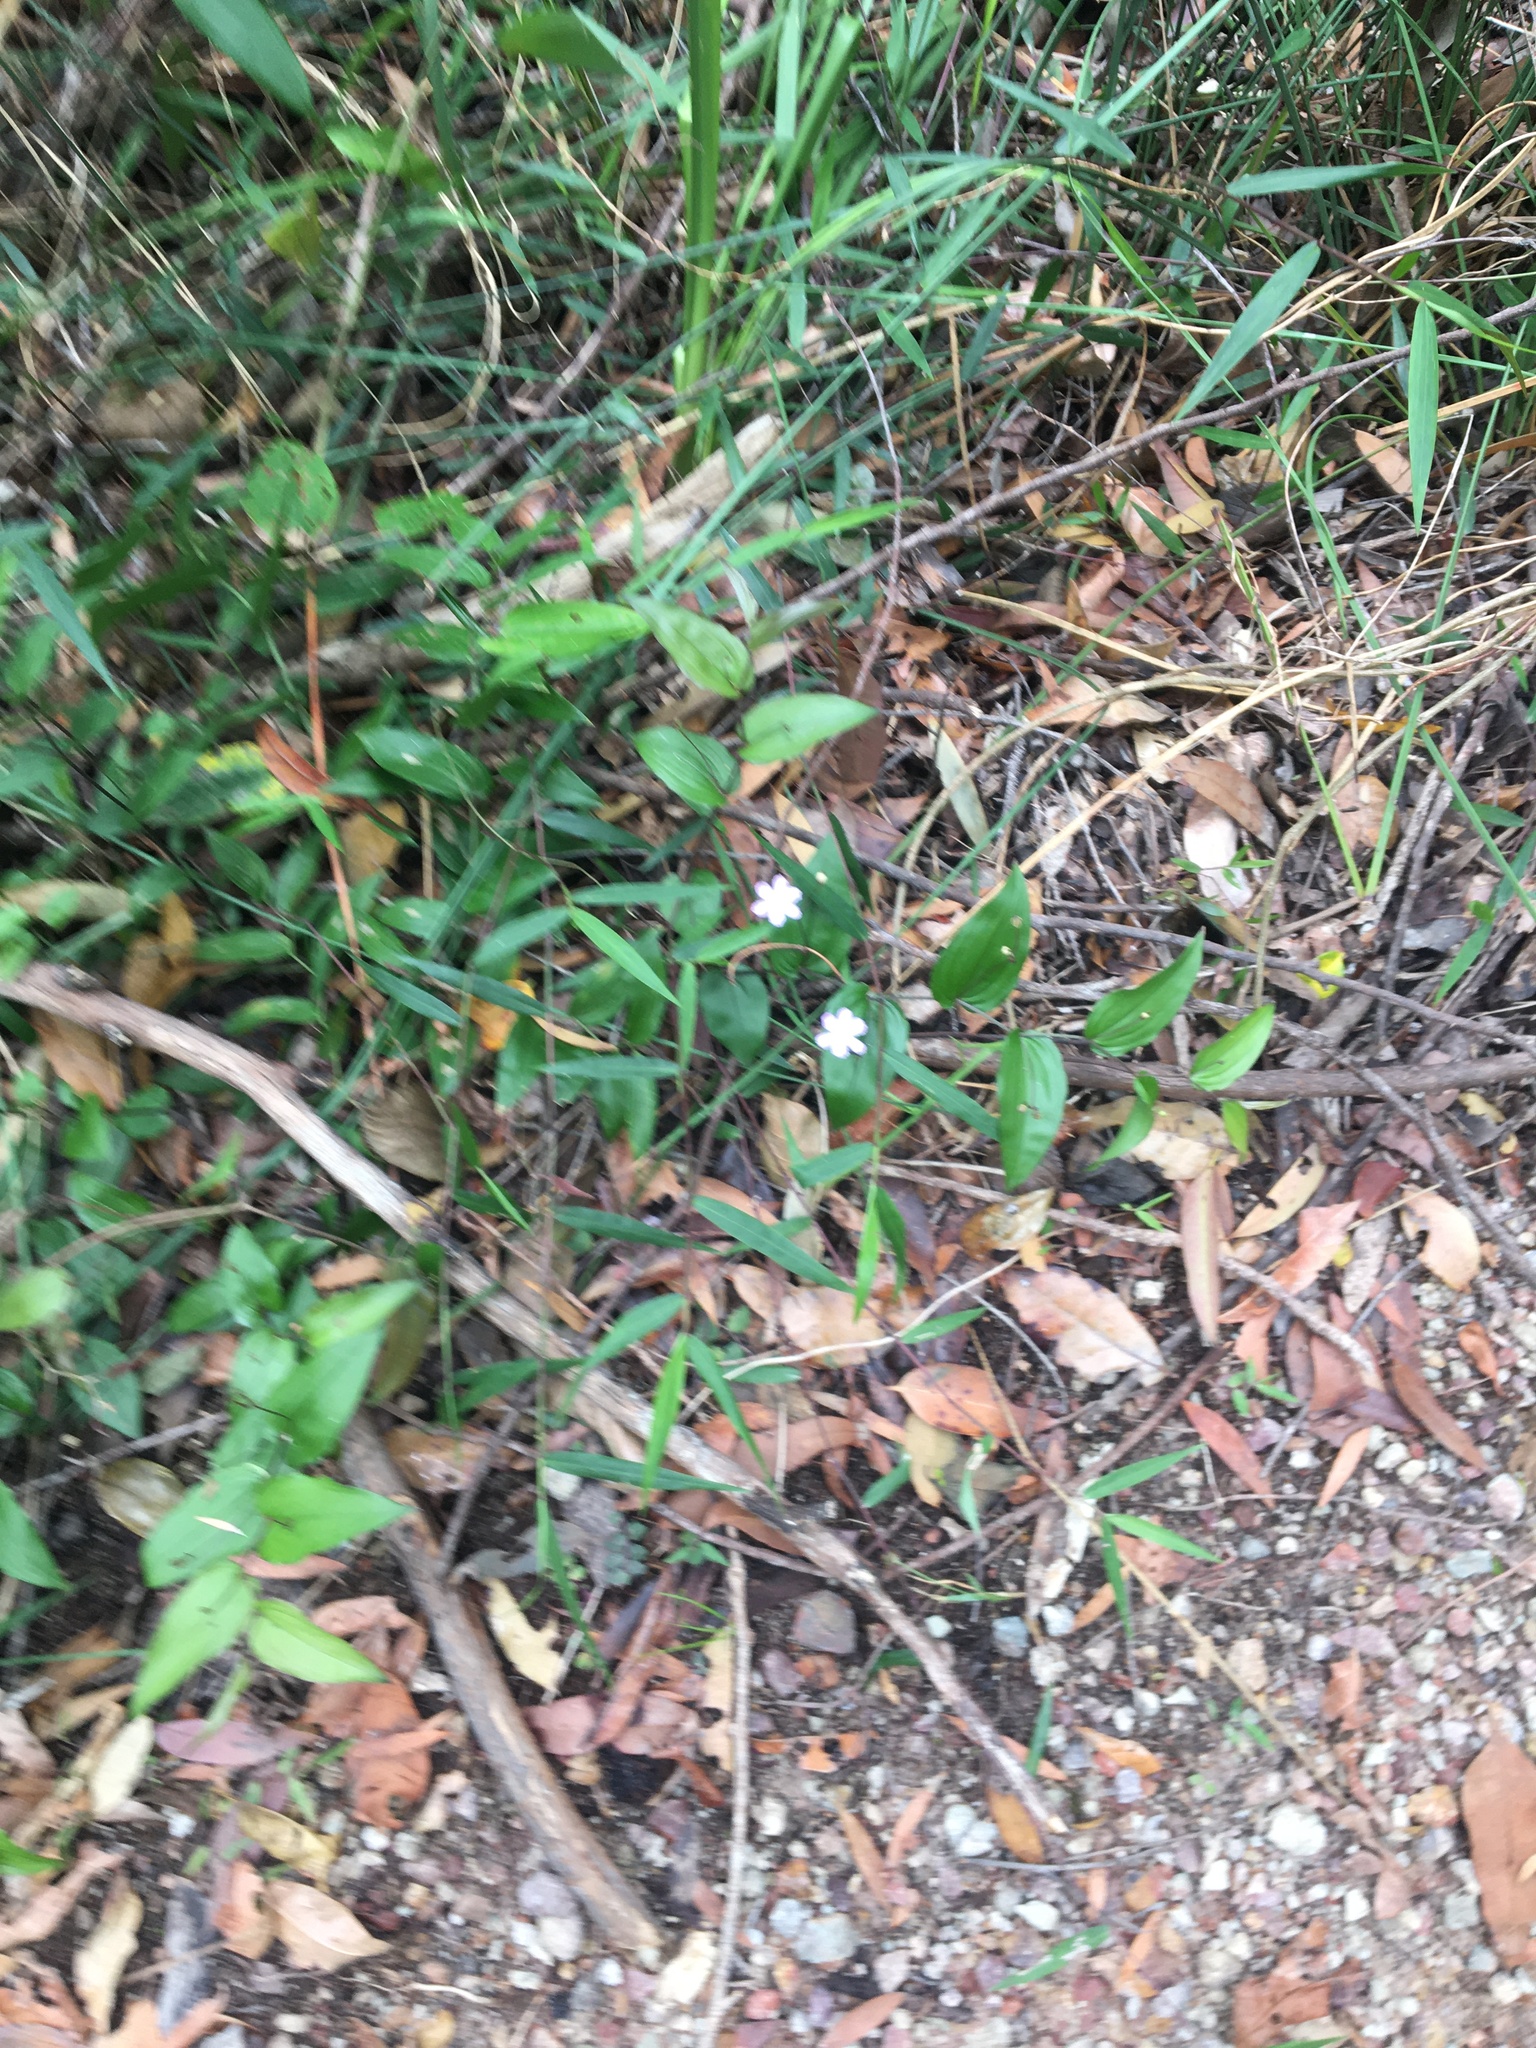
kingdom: Plantae
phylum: Tracheophyta
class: Liliopsida
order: Liliales
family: Colchicaceae
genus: Tripladenia
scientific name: Tripladenia cunninghamii
